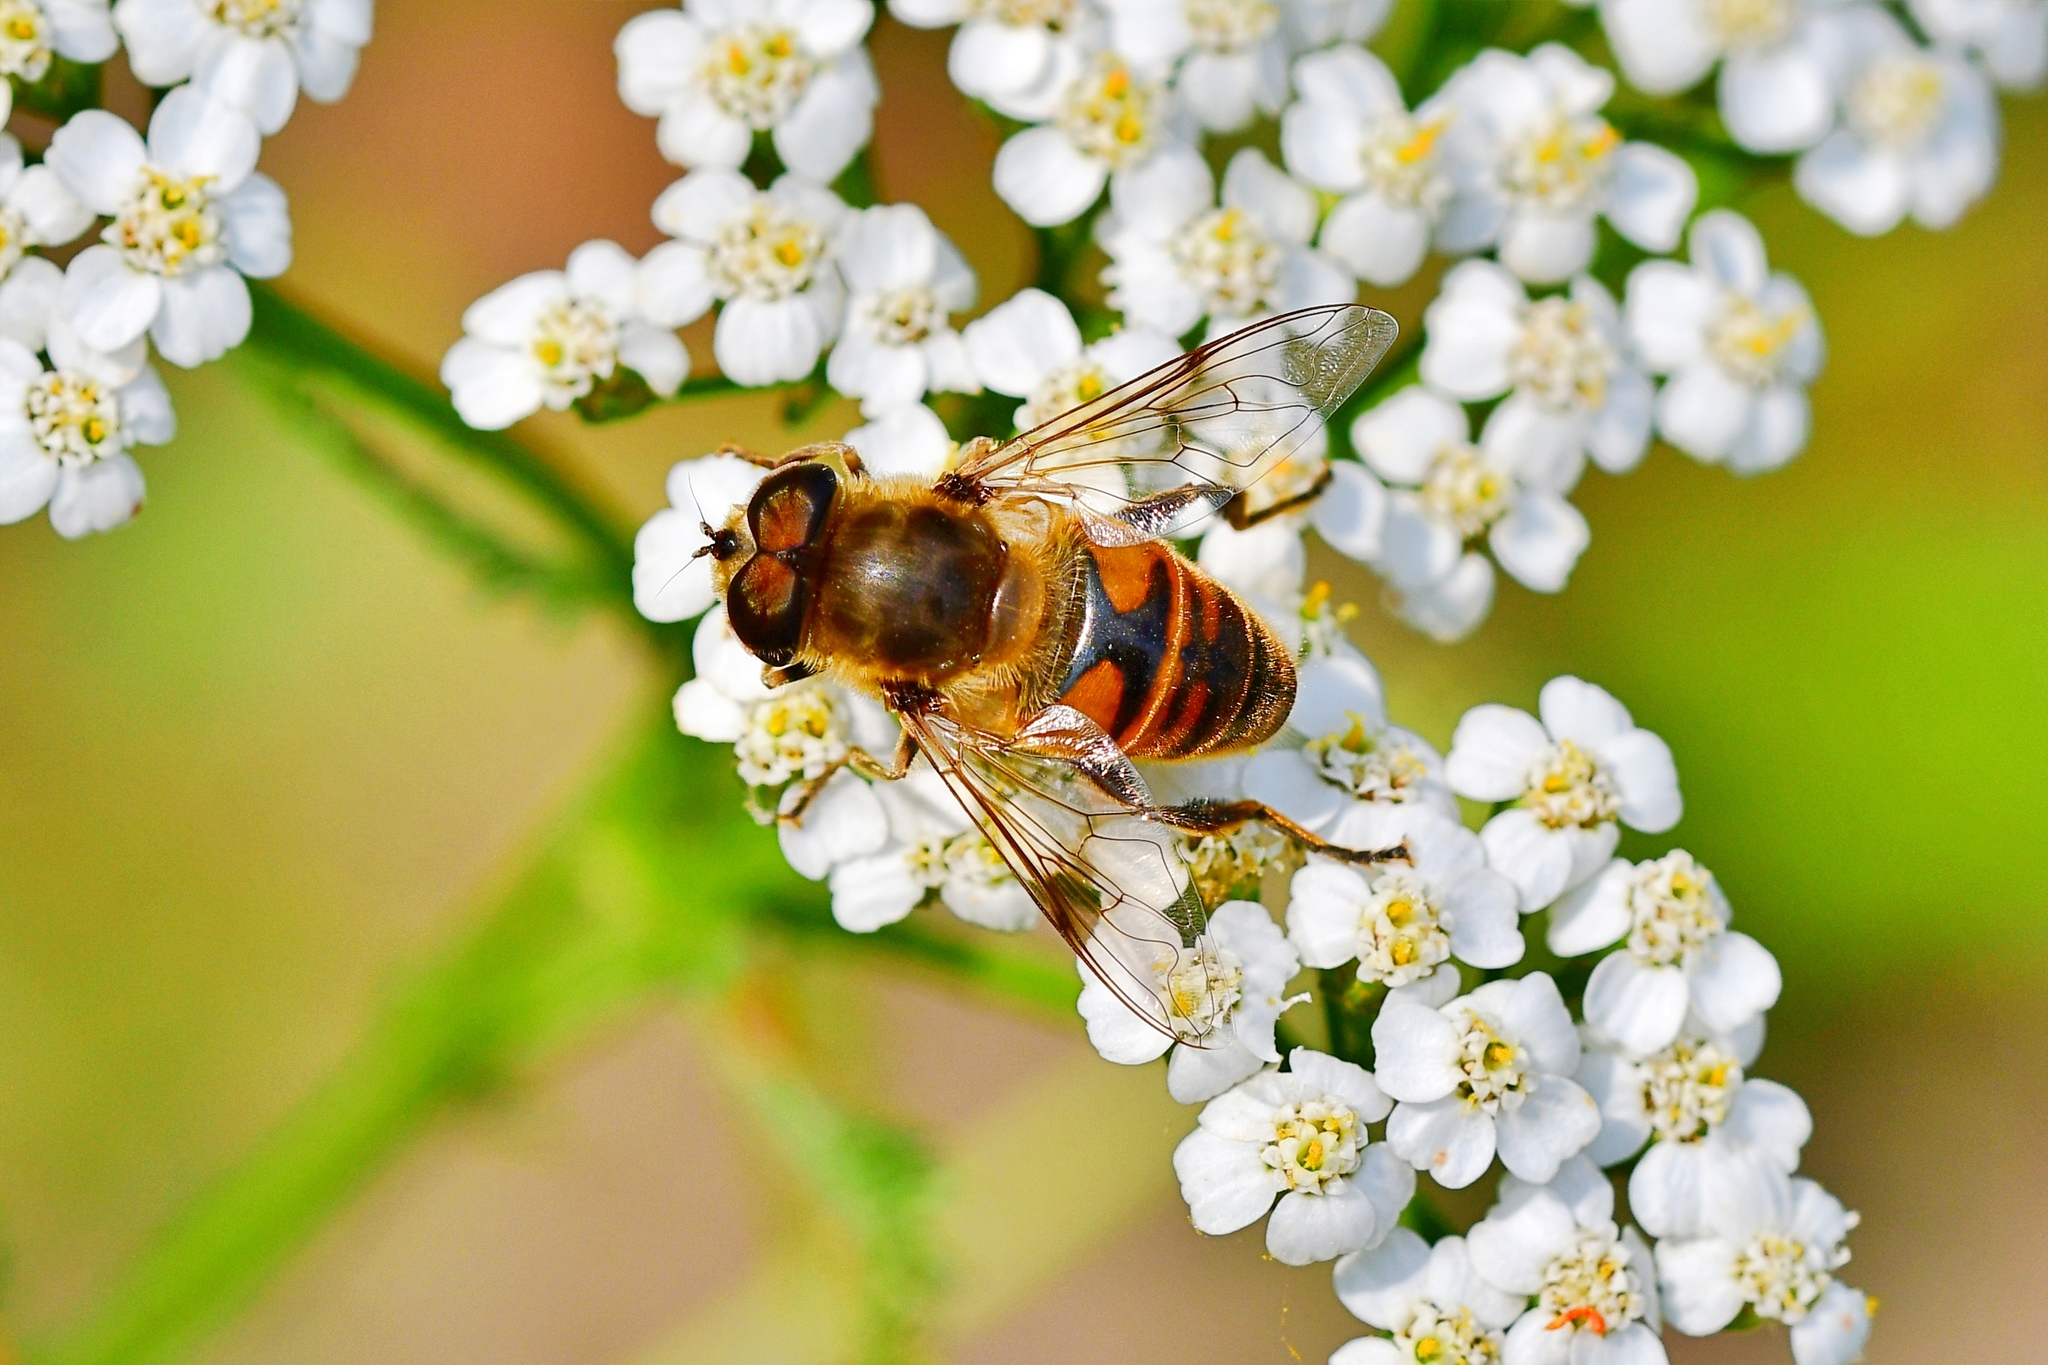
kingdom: Animalia
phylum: Arthropoda
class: Insecta
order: Diptera
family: Syrphidae
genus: Eristalis
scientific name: Eristalis tenax
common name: Drone fly
